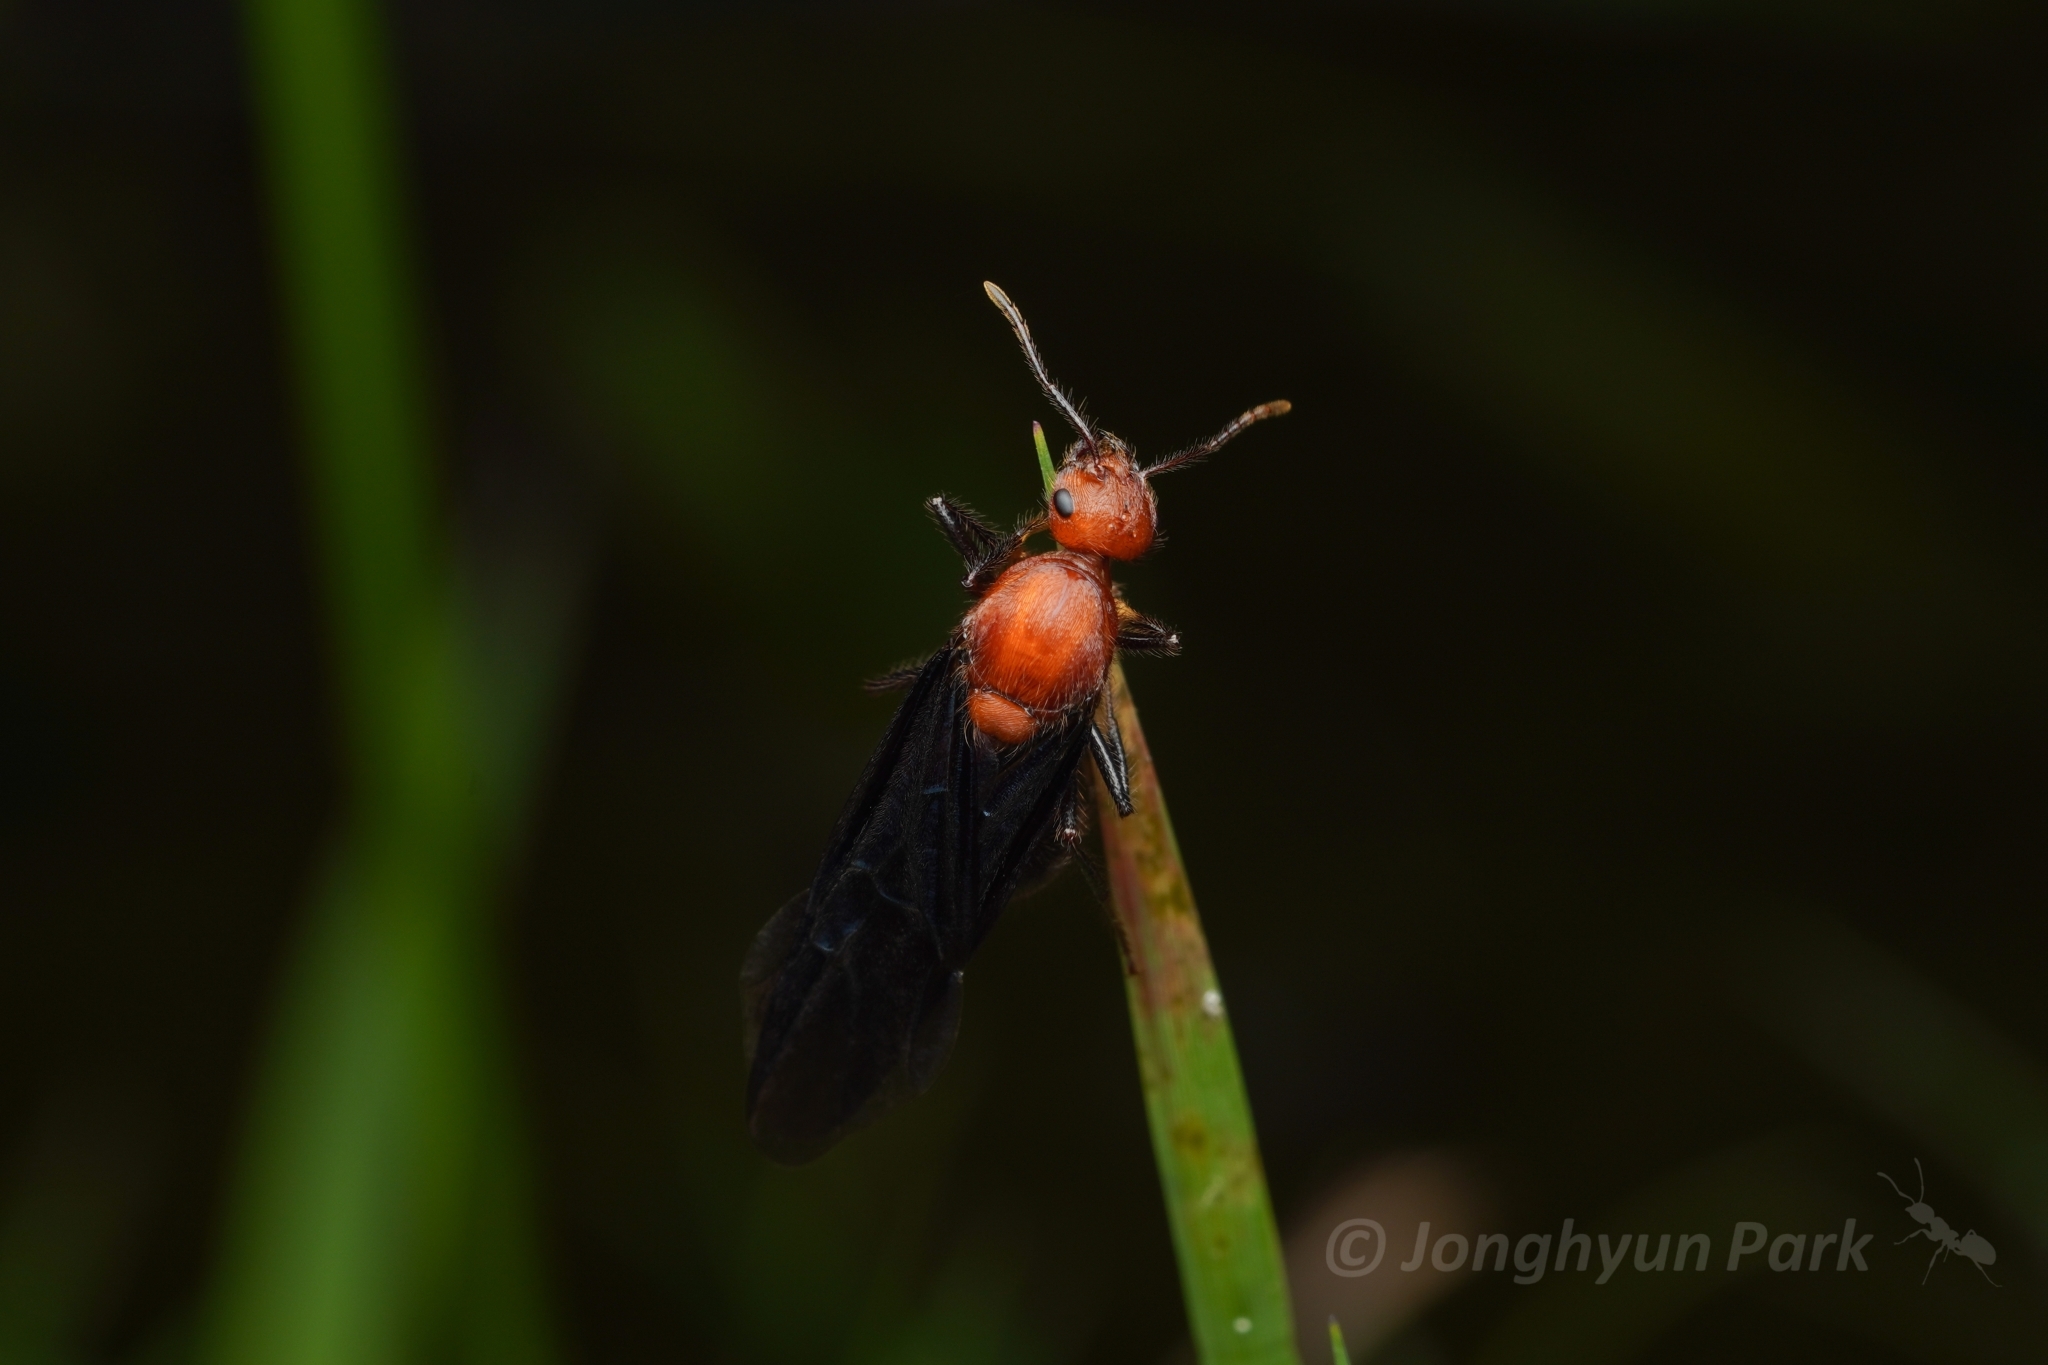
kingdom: Animalia
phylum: Arthropoda
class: Insecta
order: Hymenoptera
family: Formicidae
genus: Myrmicaria
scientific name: Myrmicaria carinata
